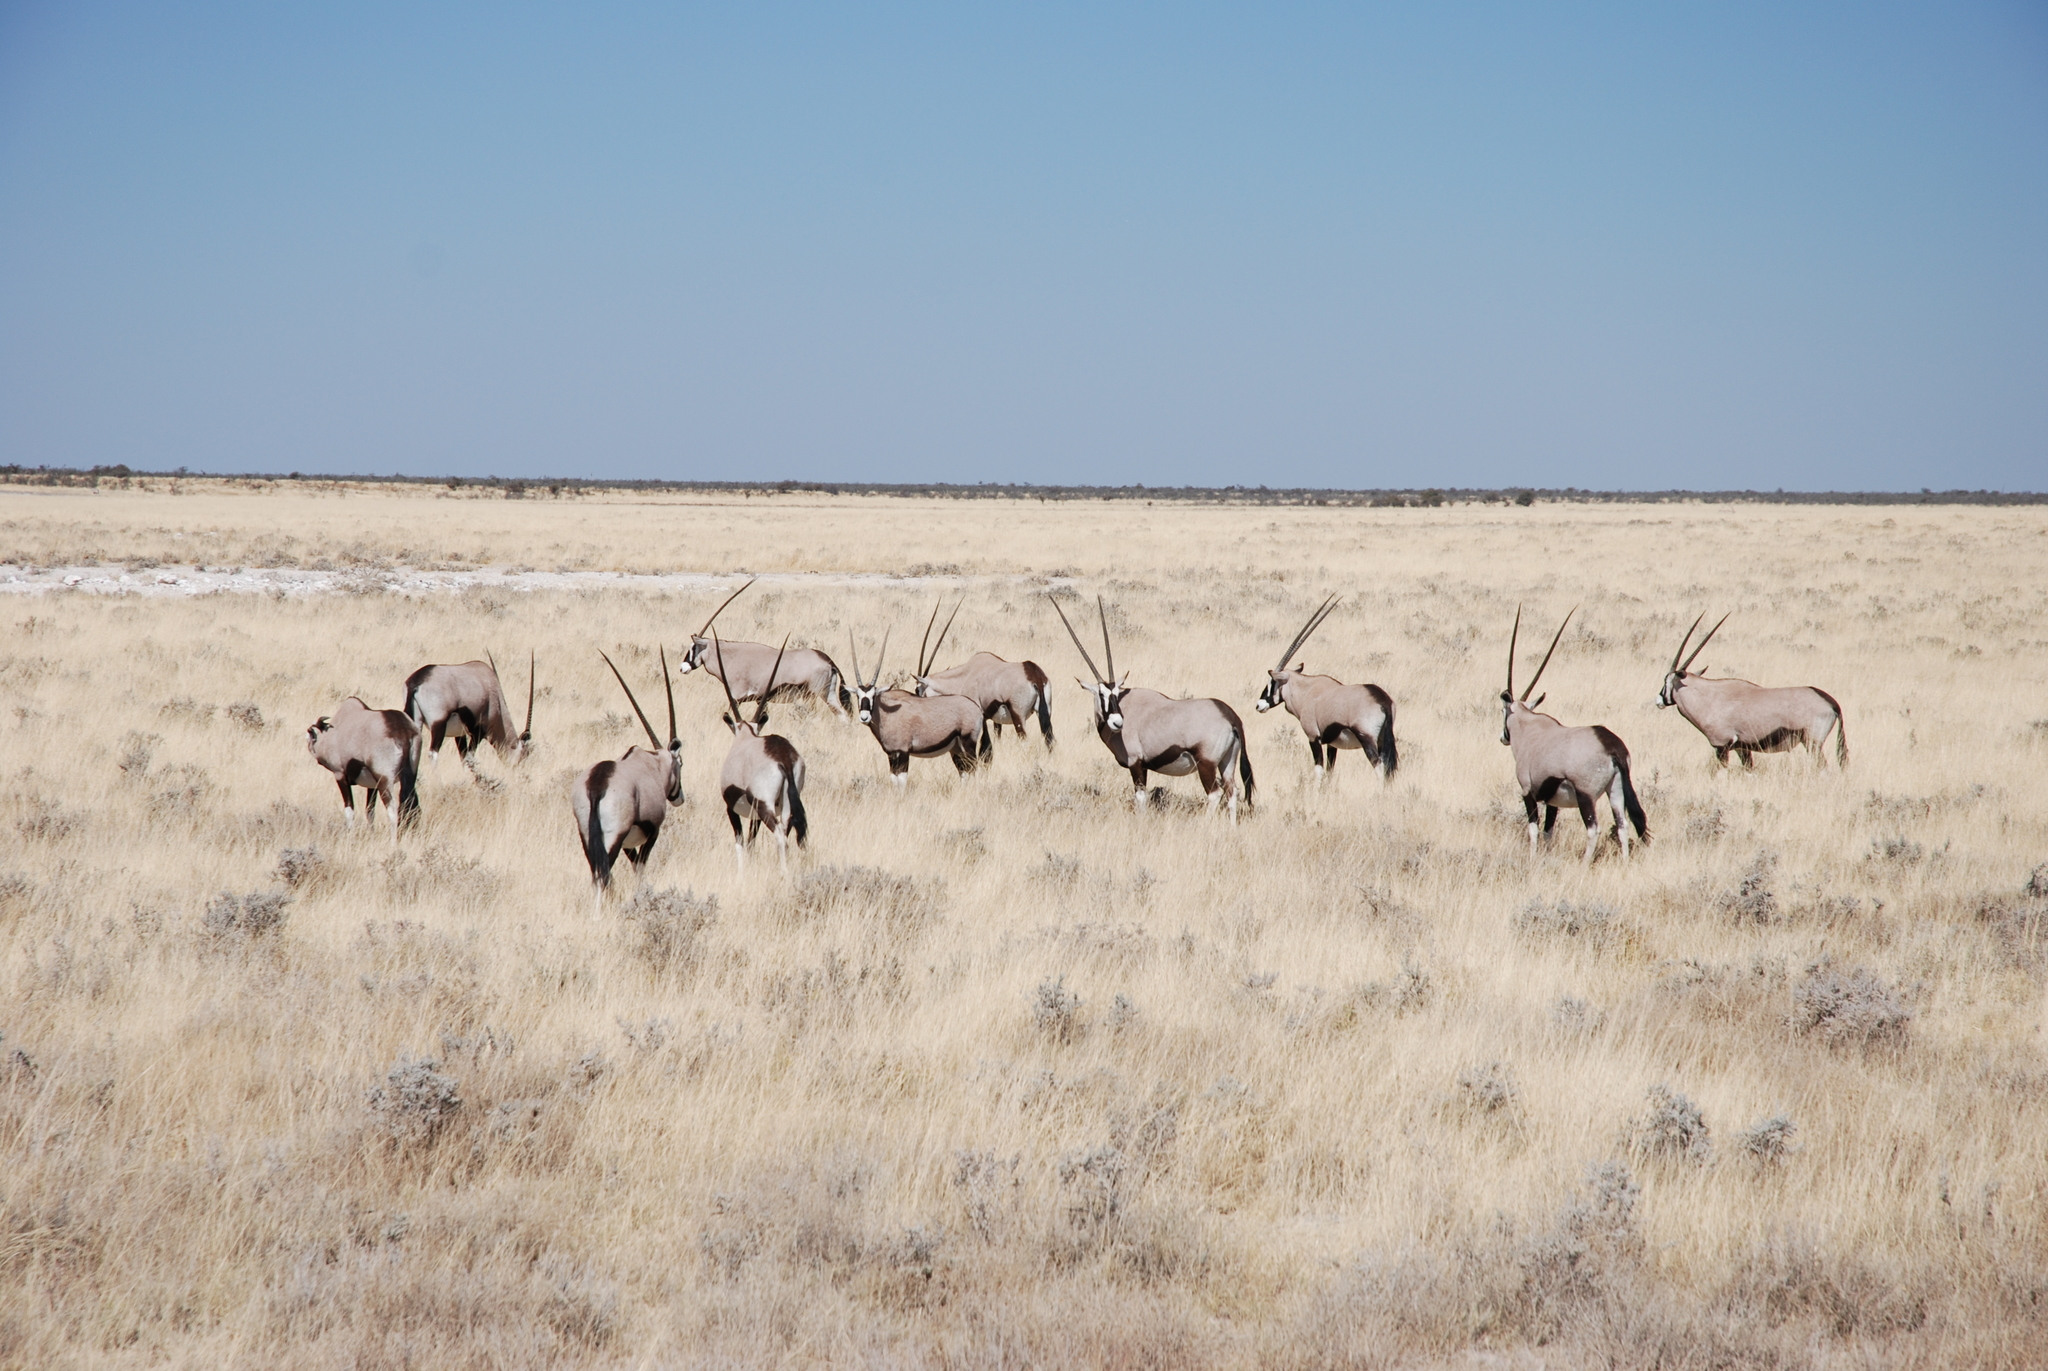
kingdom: Animalia
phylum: Chordata
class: Mammalia
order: Artiodactyla
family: Bovidae
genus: Oryx
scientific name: Oryx gazella
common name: Gemsbok
